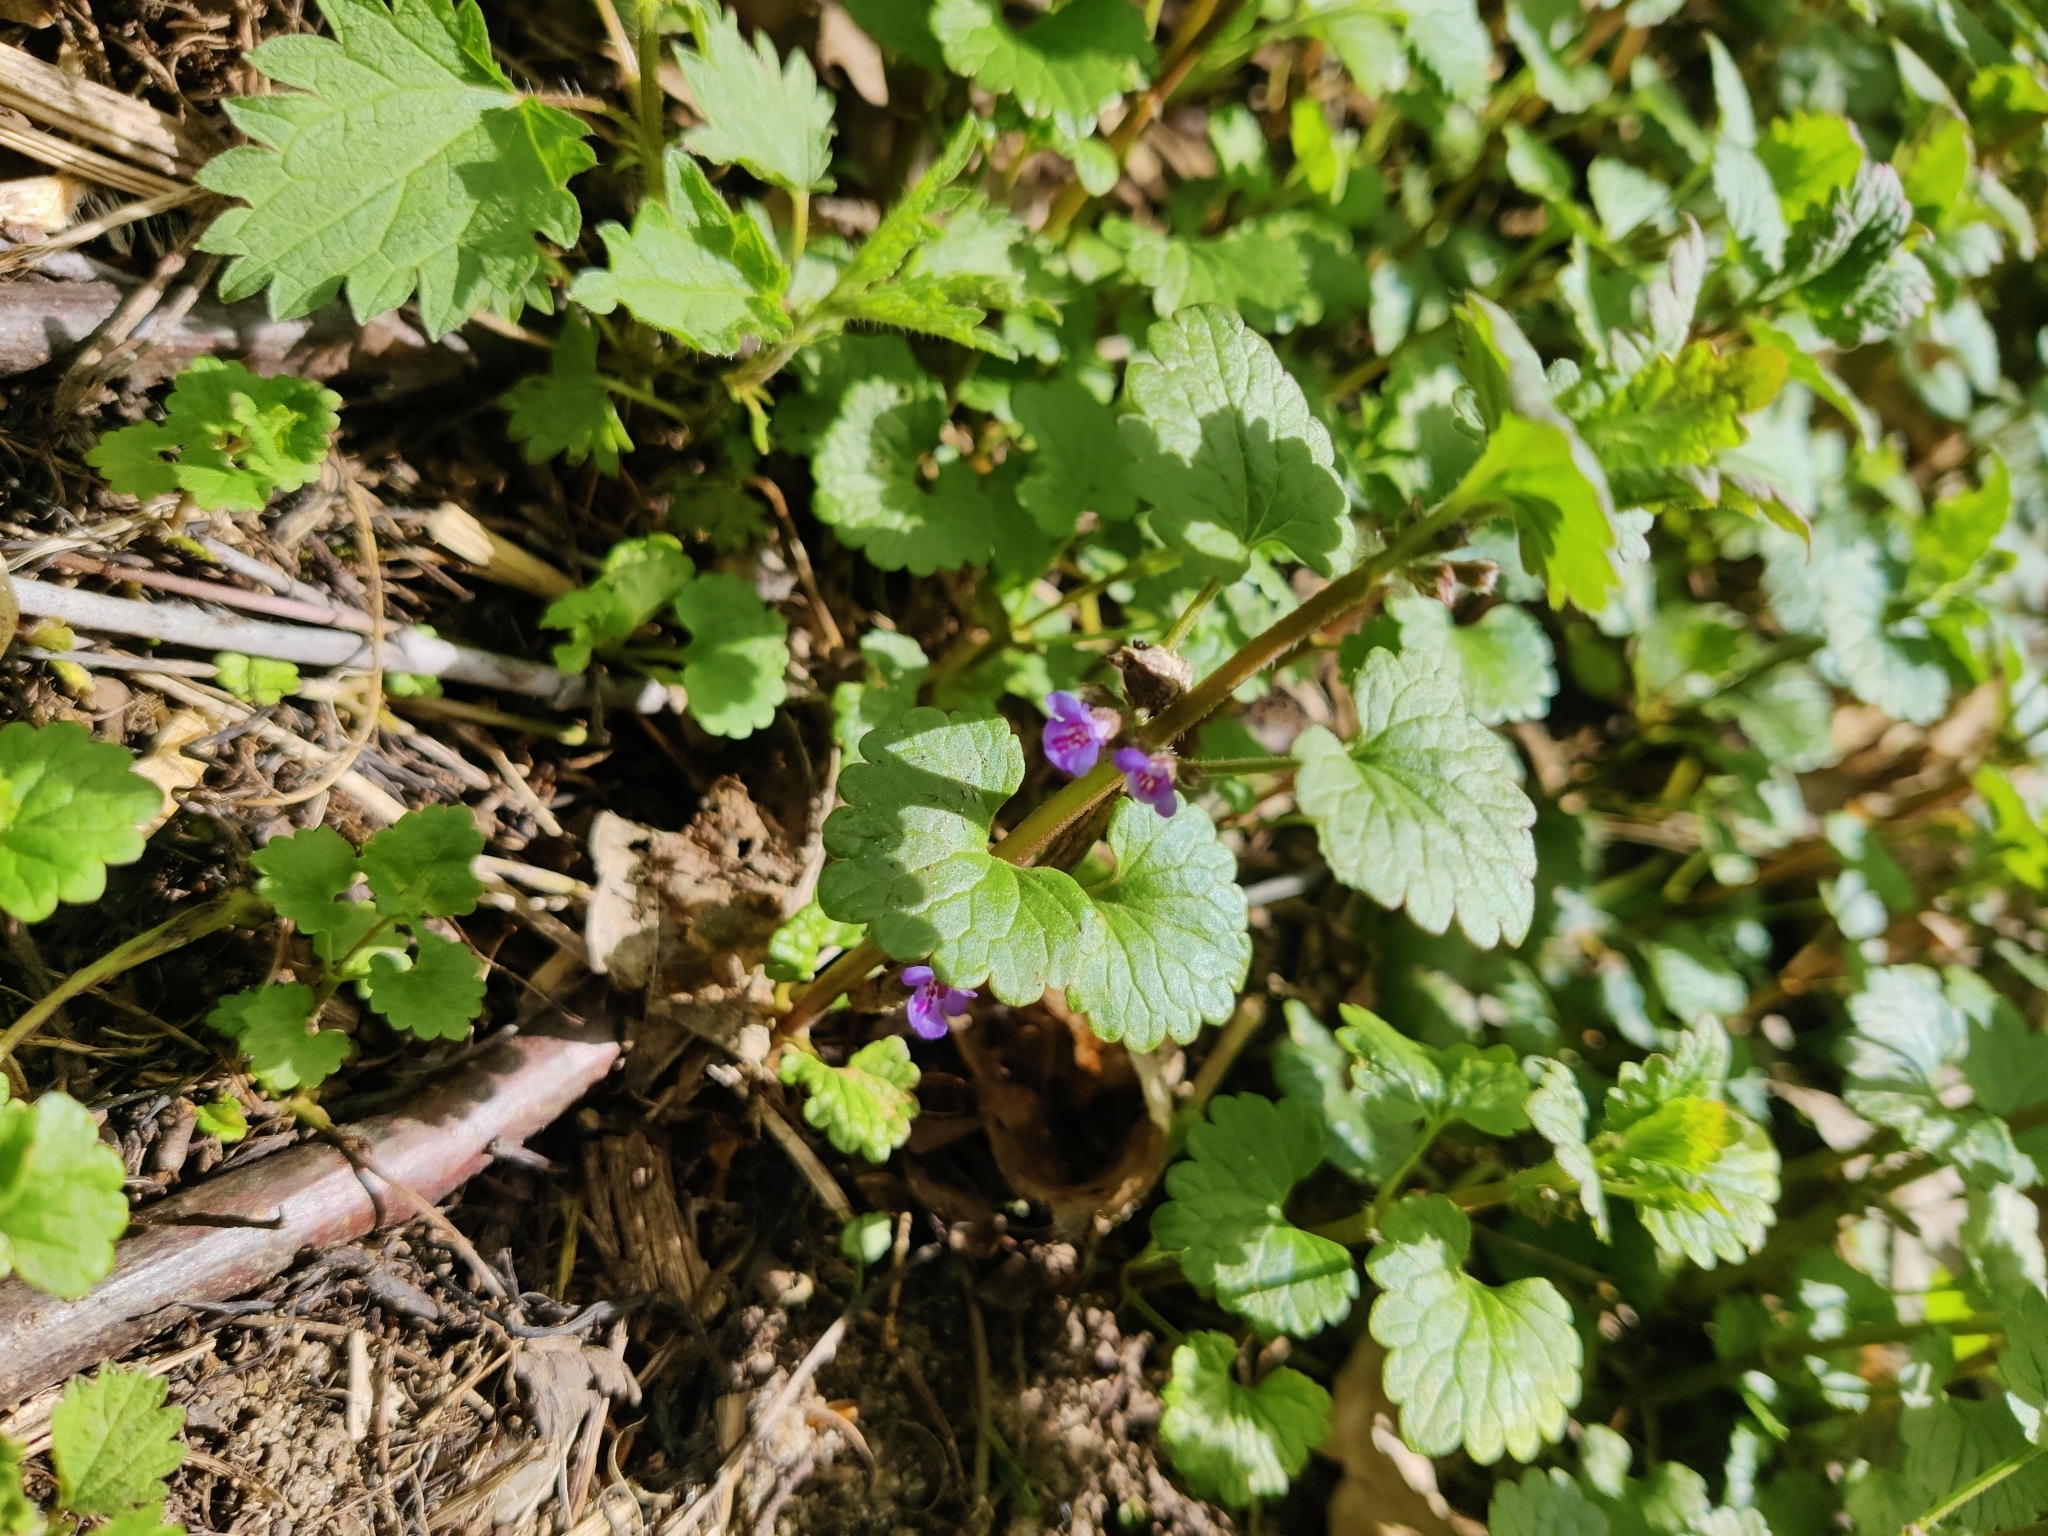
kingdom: Plantae
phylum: Tracheophyta
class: Magnoliopsida
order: Lamiales
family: Lamiaceae
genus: Glechoma
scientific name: Glechoma hederacea
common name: Ground ivy
